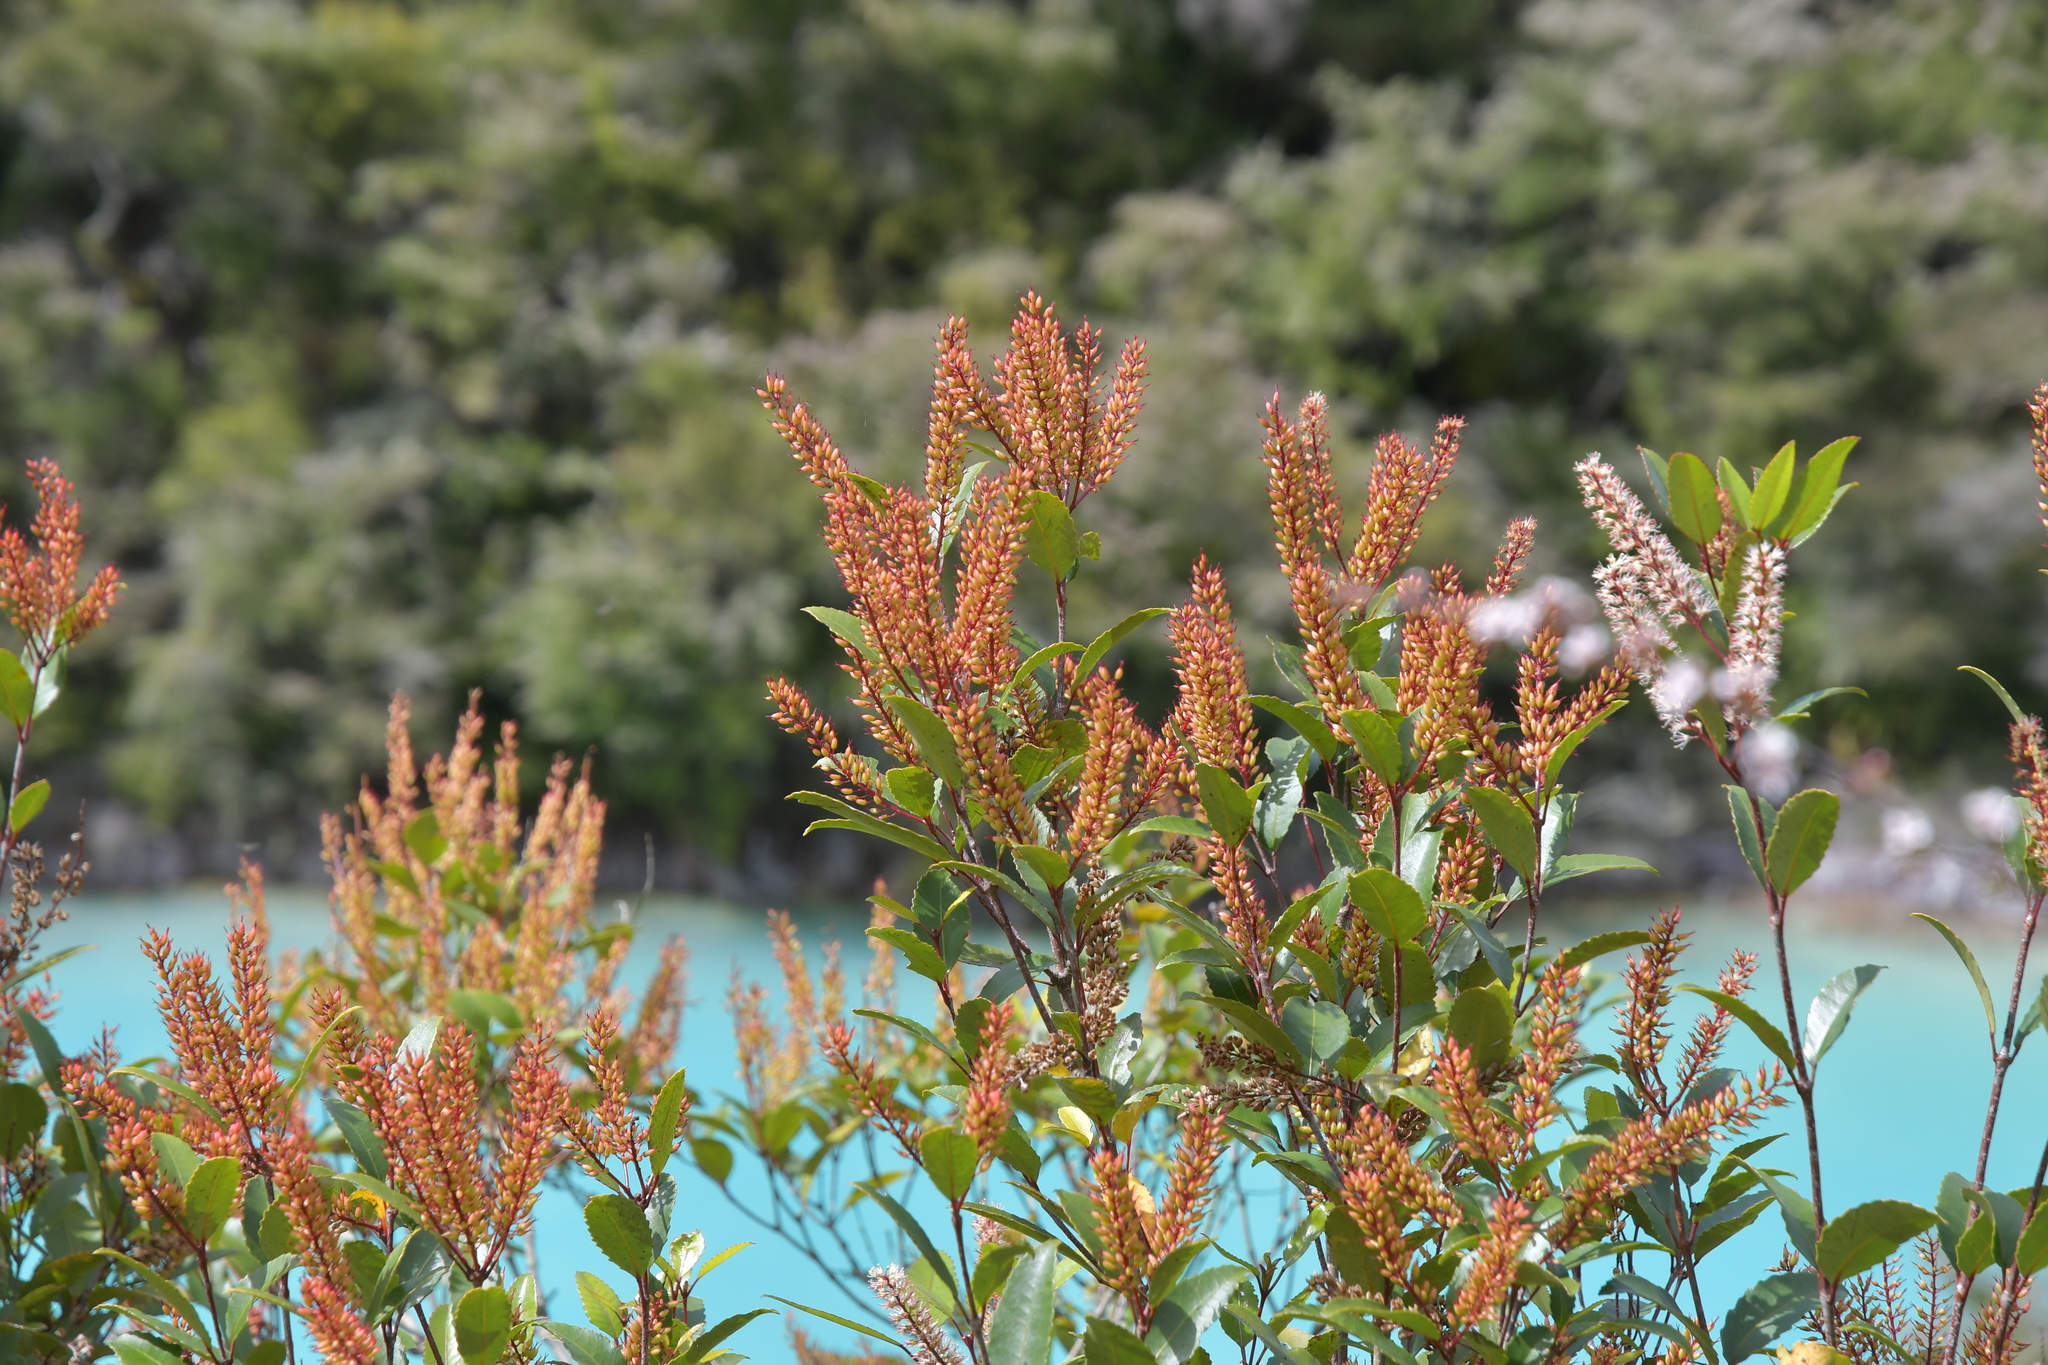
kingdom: Plantae
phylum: Tracheophyta
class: Magnoliopsida
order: Oxalidales
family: Cunoniaceae
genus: Pterophylla
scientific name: Pterophylla racemosa
